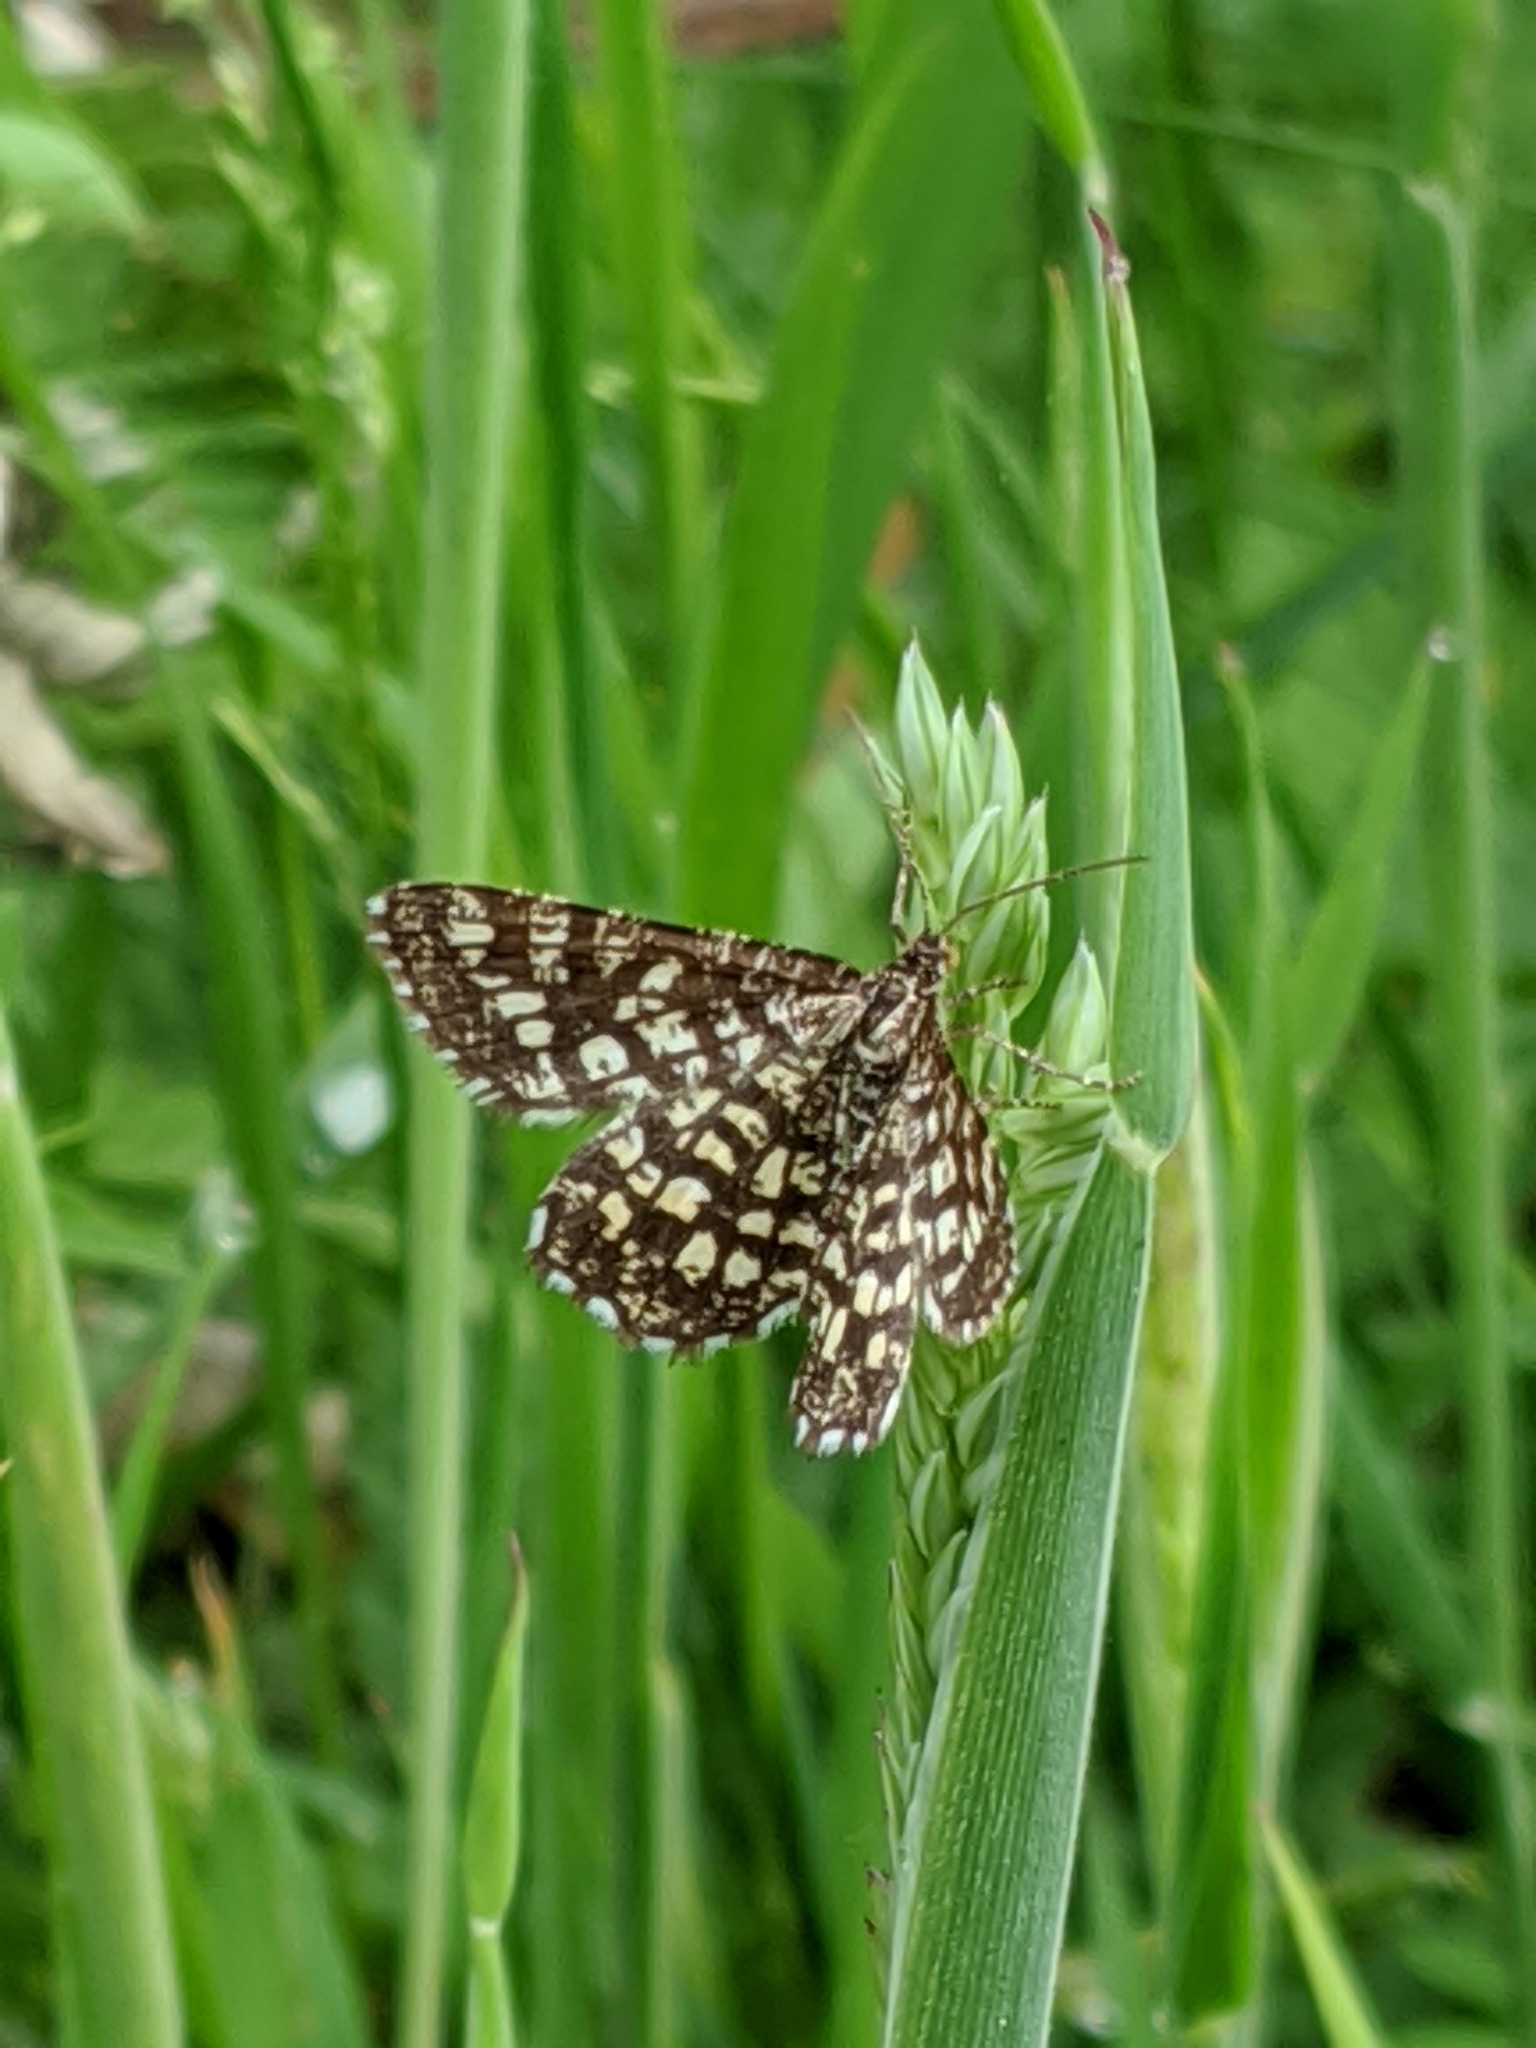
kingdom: Animalia
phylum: Arthropoda
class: Insecta
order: Lepidoptera
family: Geometridae
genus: Chiasmia
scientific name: Chiasmia clathrata
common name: Latticed heath
